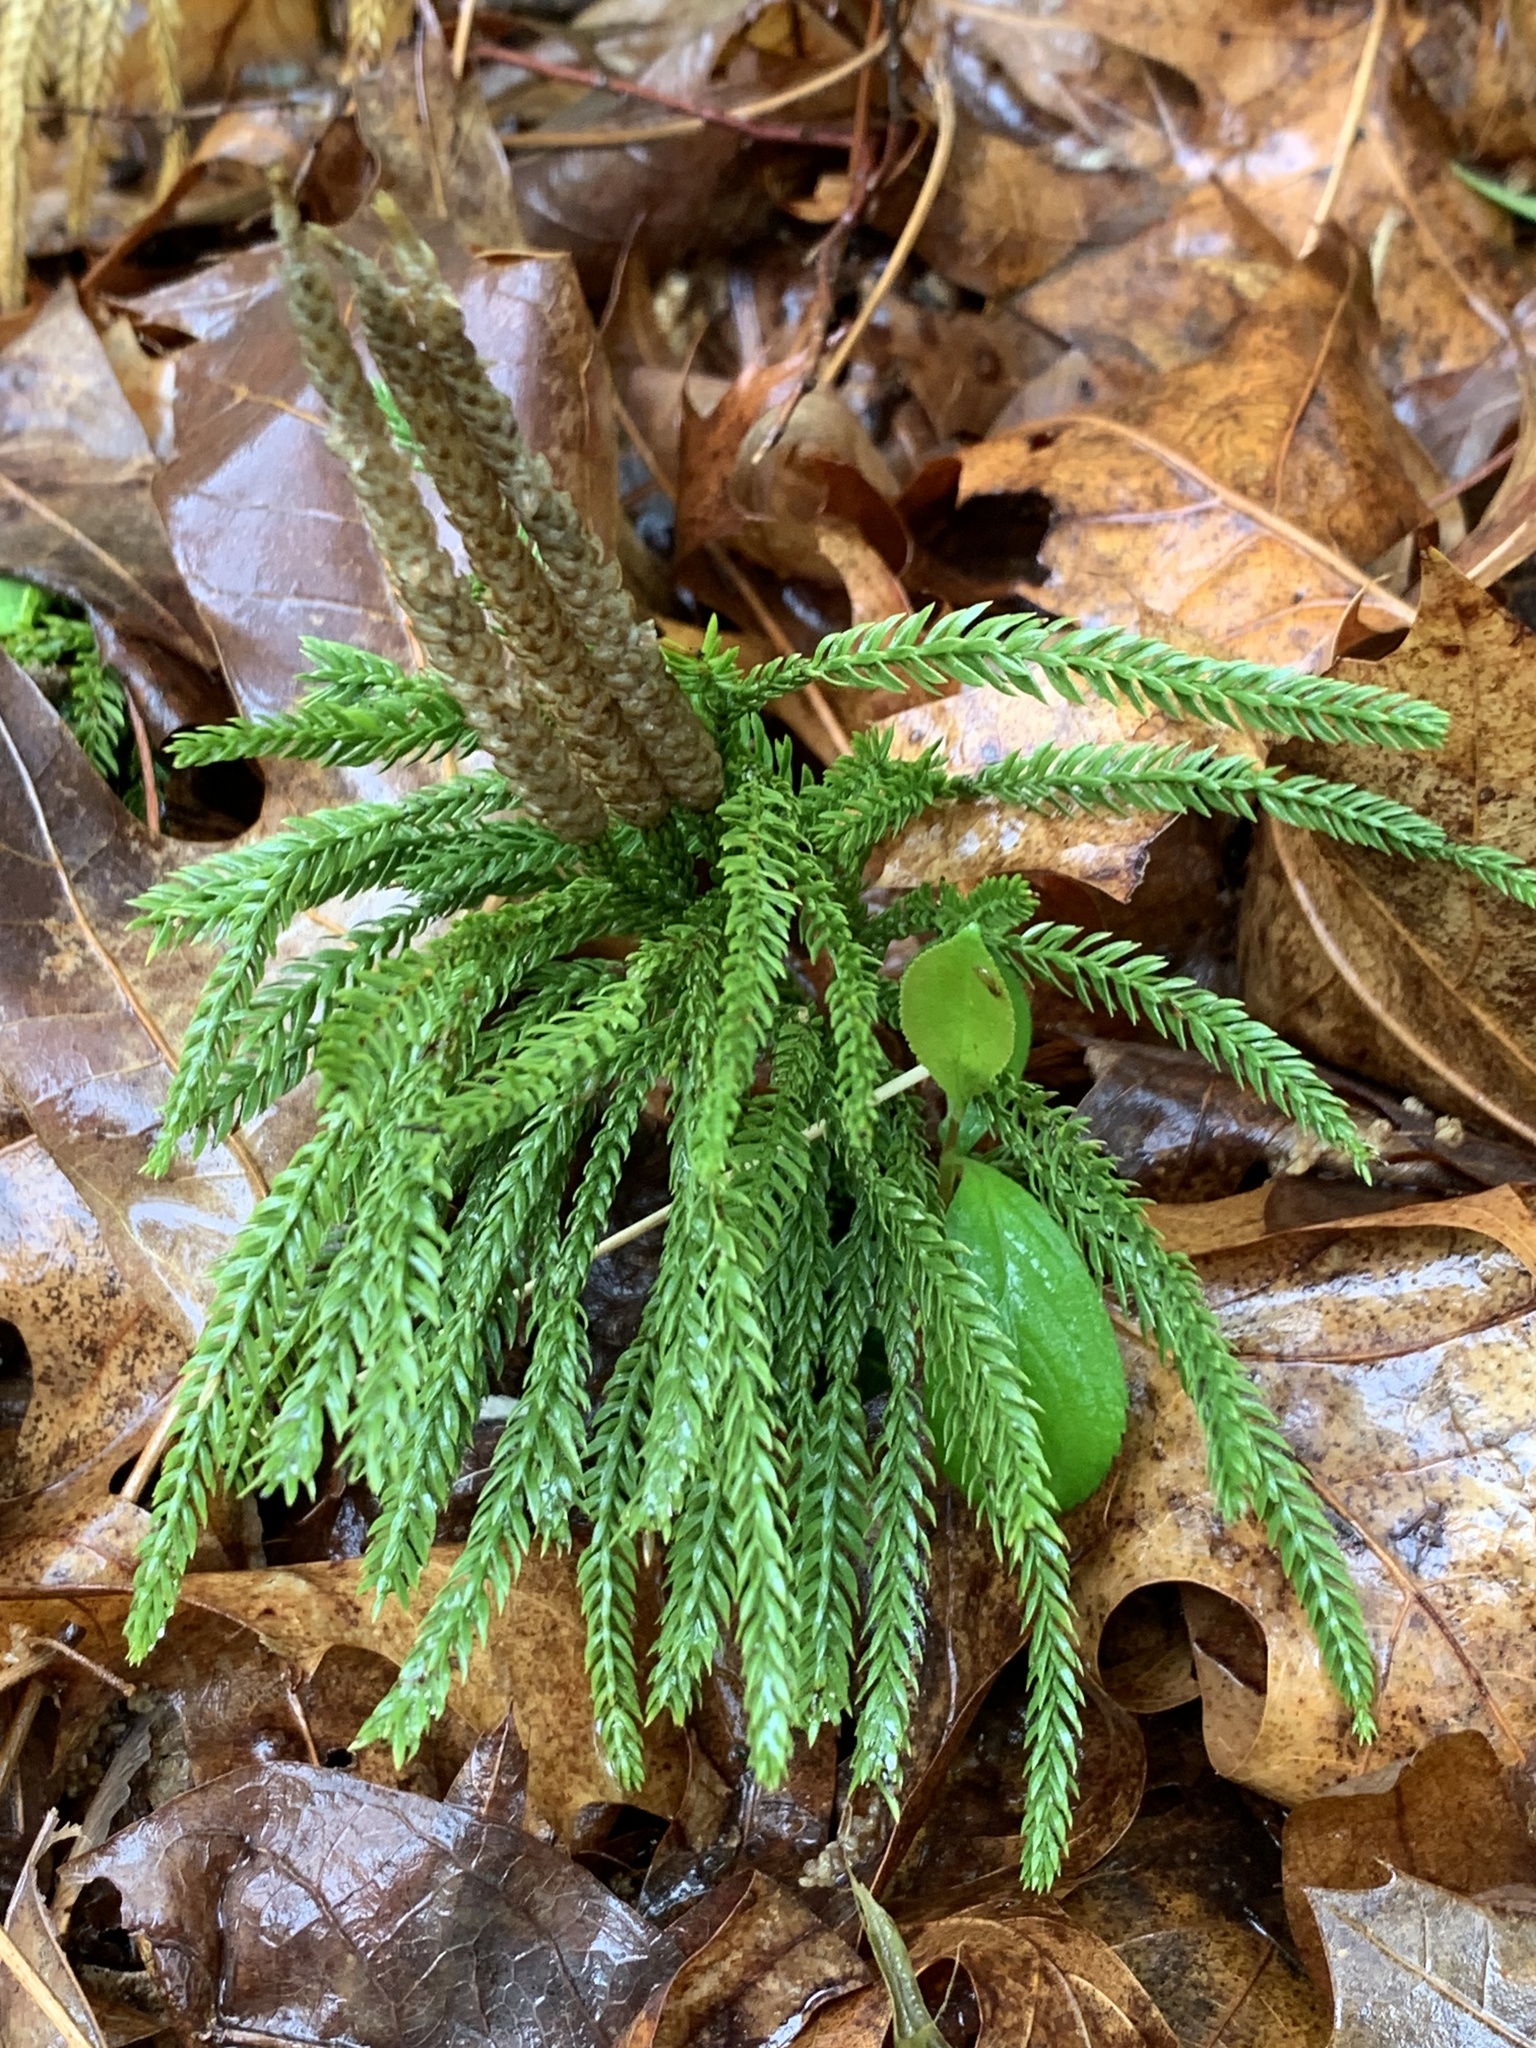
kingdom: Plantae
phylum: Tracheophyta
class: Lycopodiopsida
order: Lycopodiales
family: Lycopodiaceae
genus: Dendrolycopodium
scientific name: Dendrolycopodium obscurum
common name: Common ground-pine
